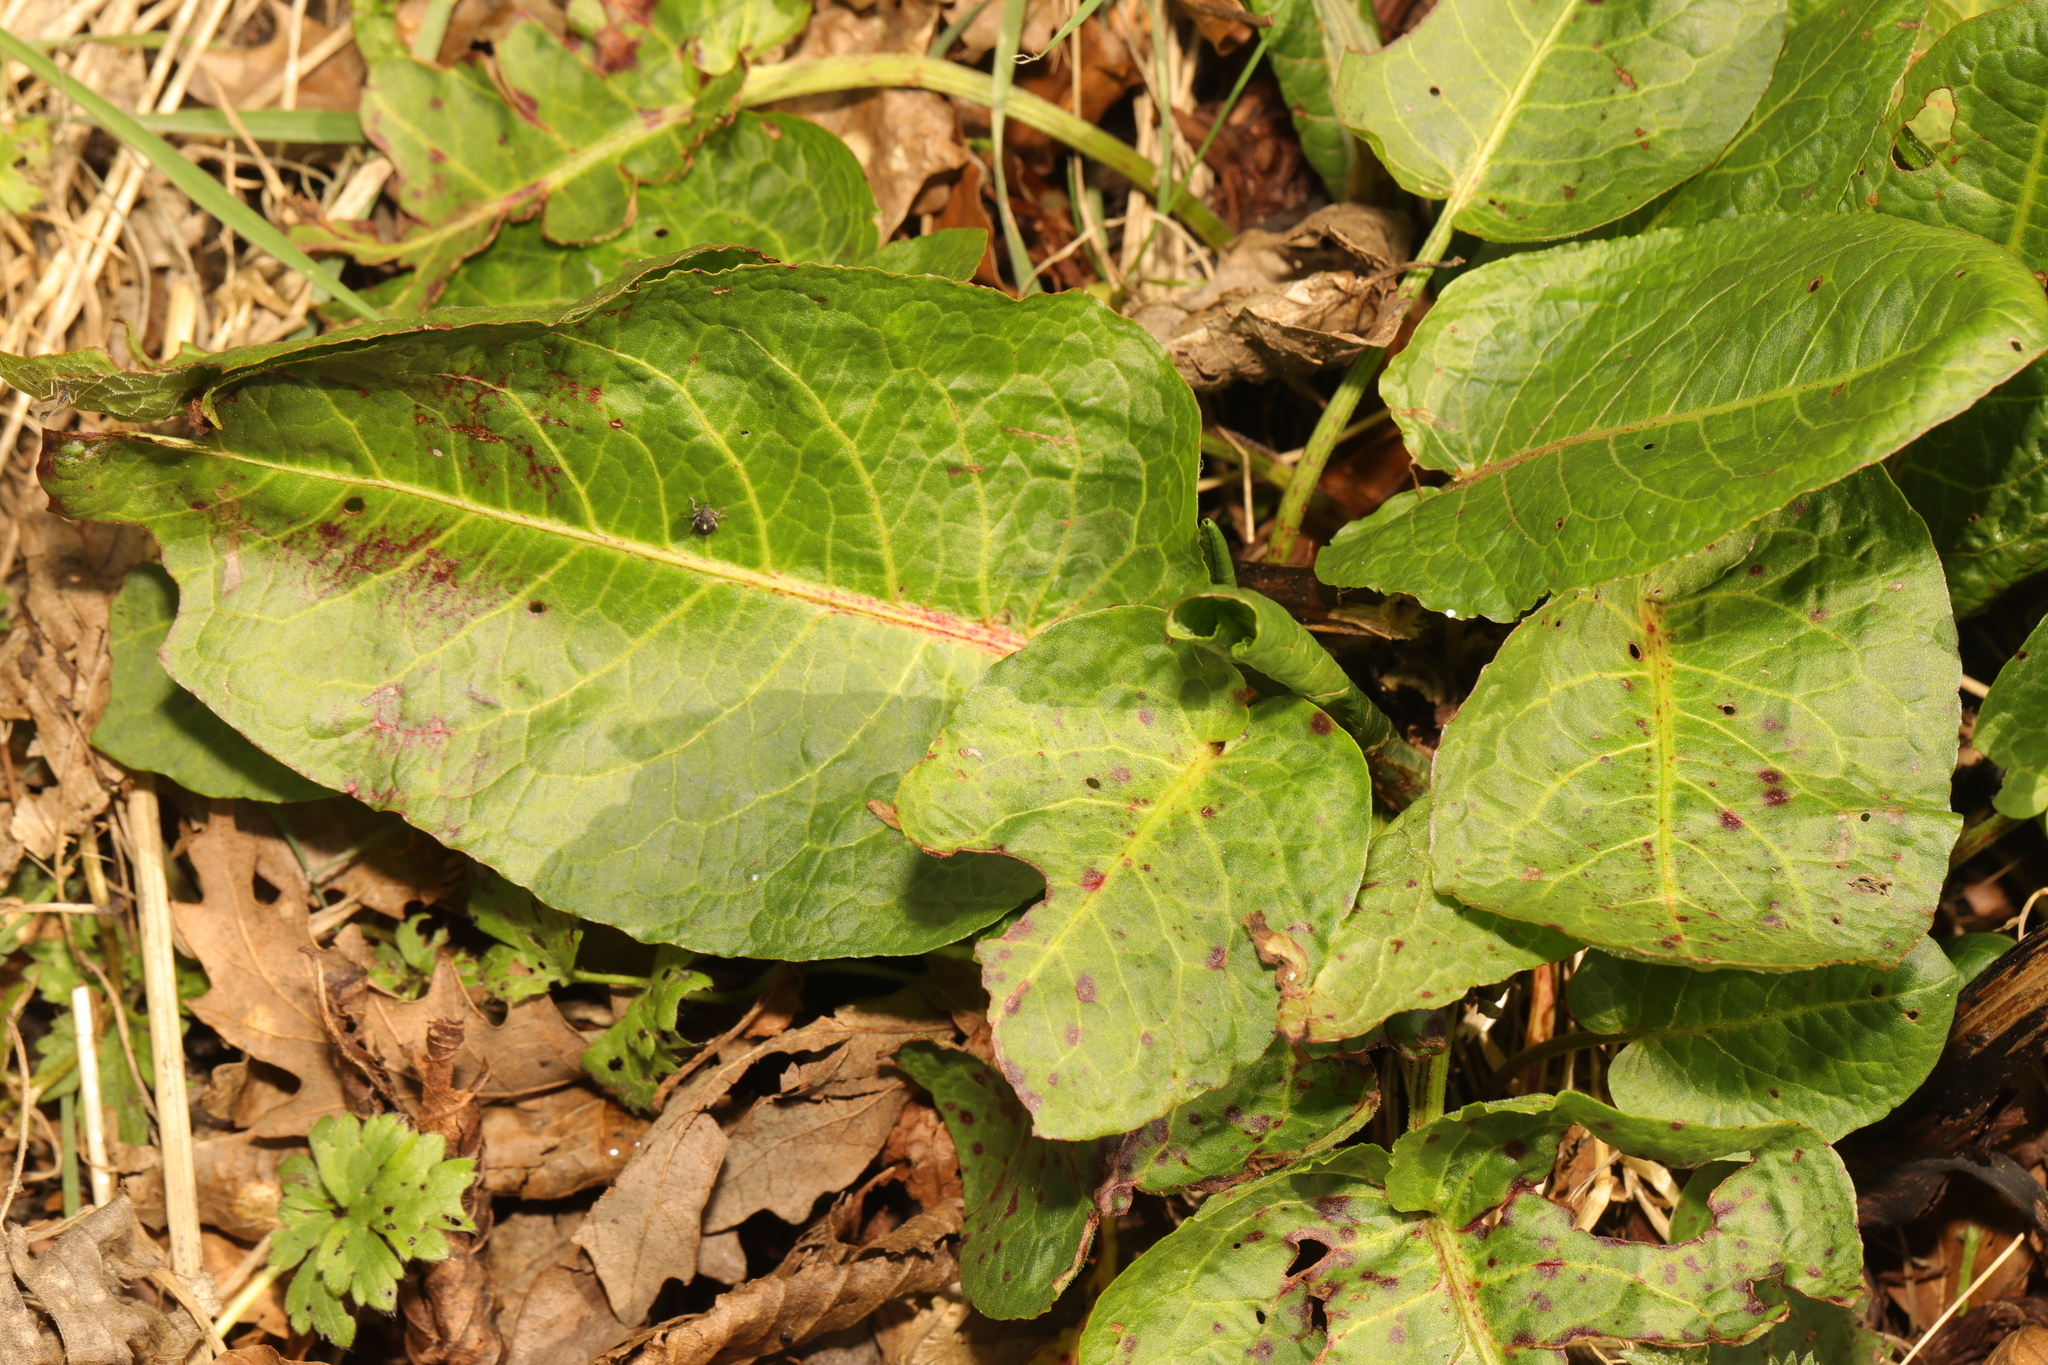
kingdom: Plantae
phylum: Tracheophyta
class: Magnoliopsida
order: Caryophyllales
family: Polygonaceae
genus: Rumex
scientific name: Rumex obtusifolius
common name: Bitter dock
